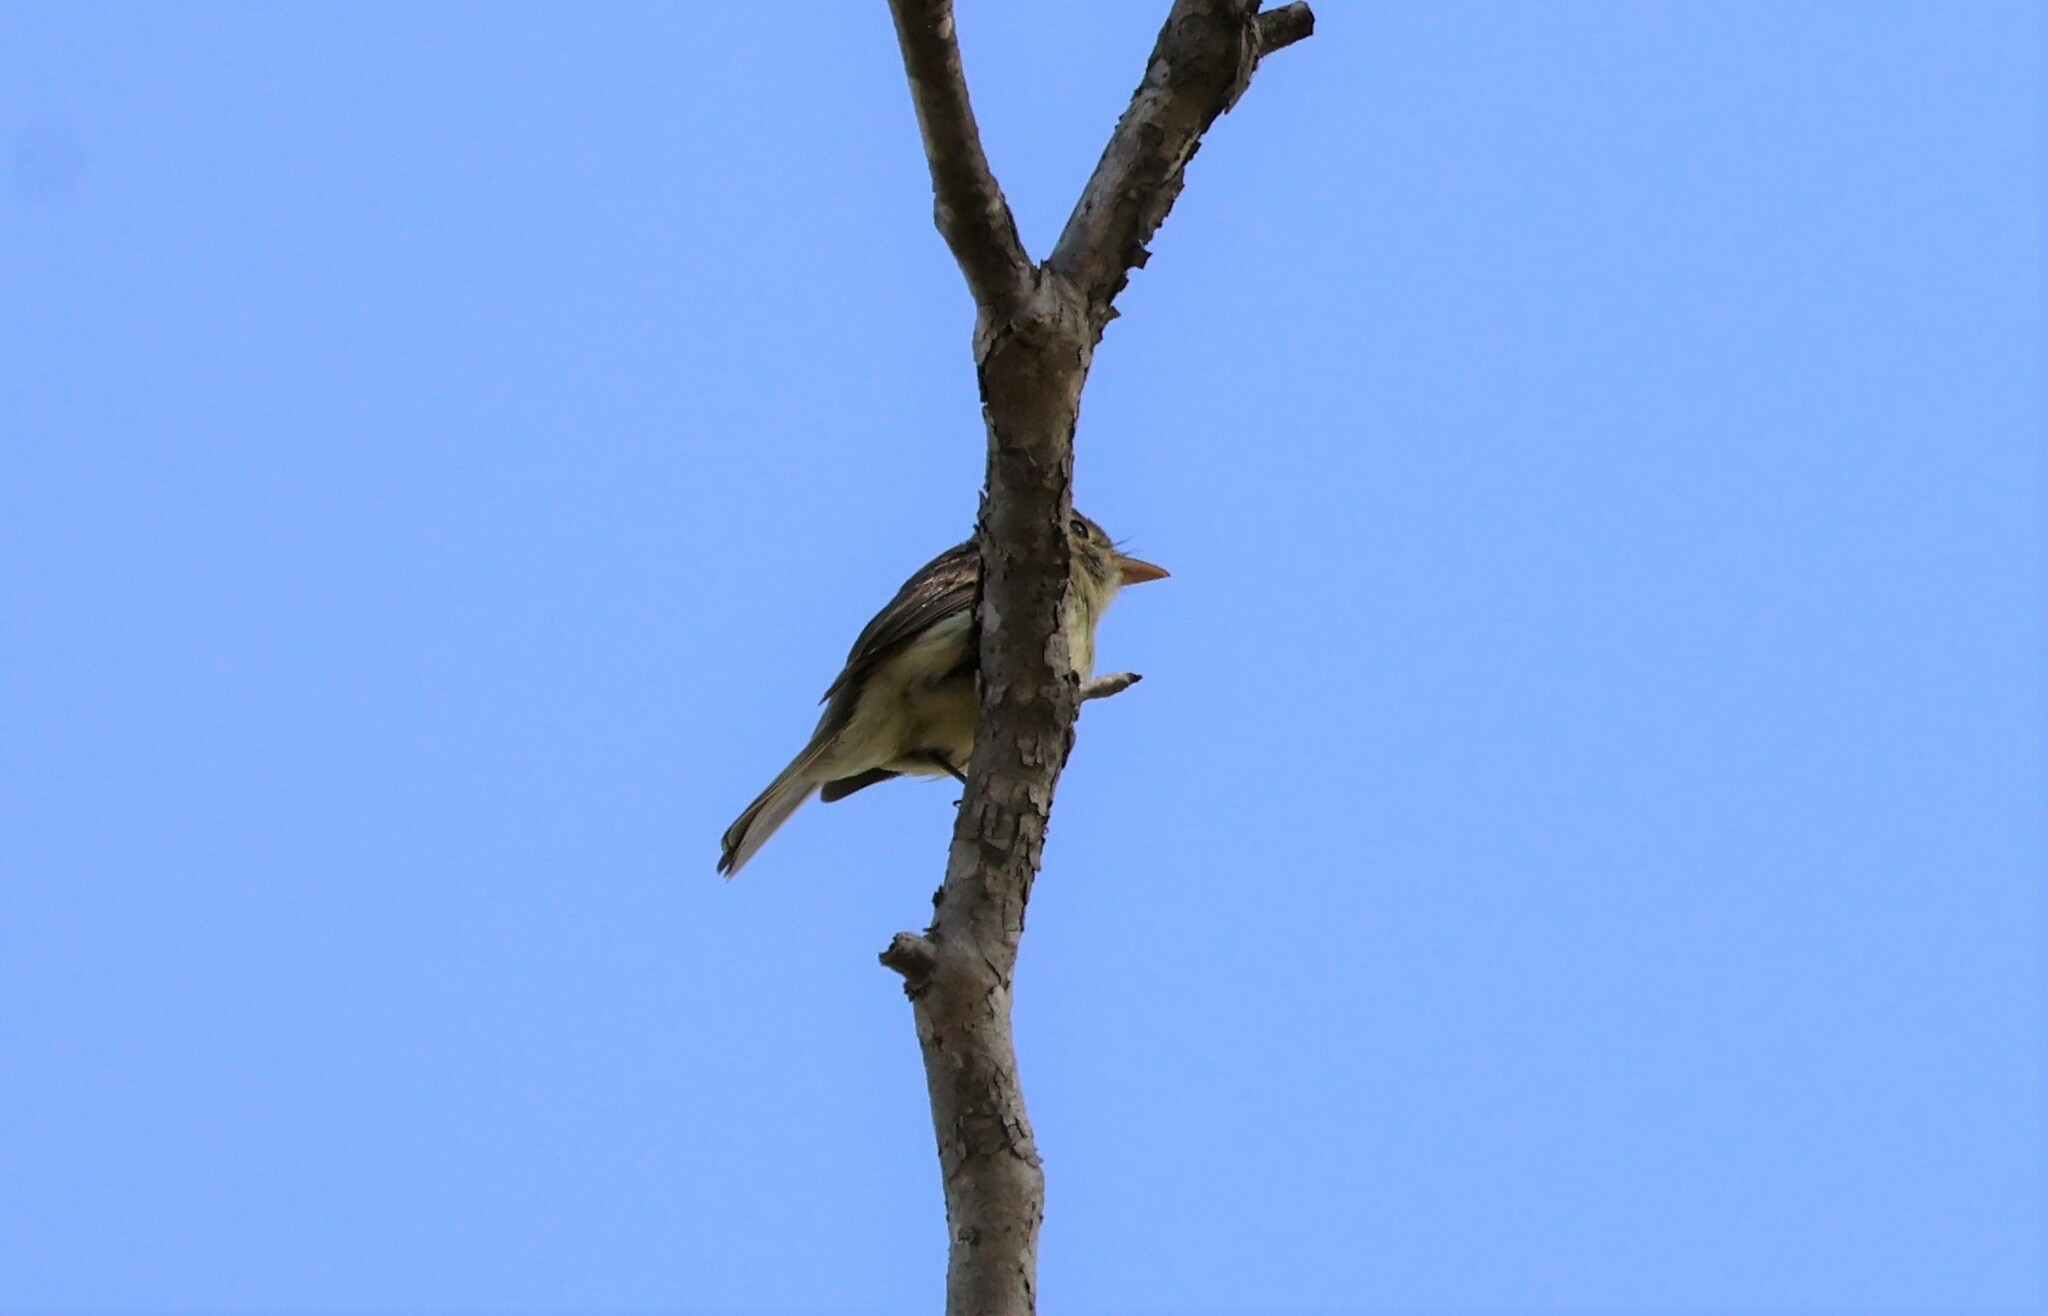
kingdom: Animalia
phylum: Chordata
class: Aves
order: Passeriformes
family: Tyrannidae
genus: Empidonax
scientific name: Empidonax difficilis
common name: Pacific-slope flycatcher
